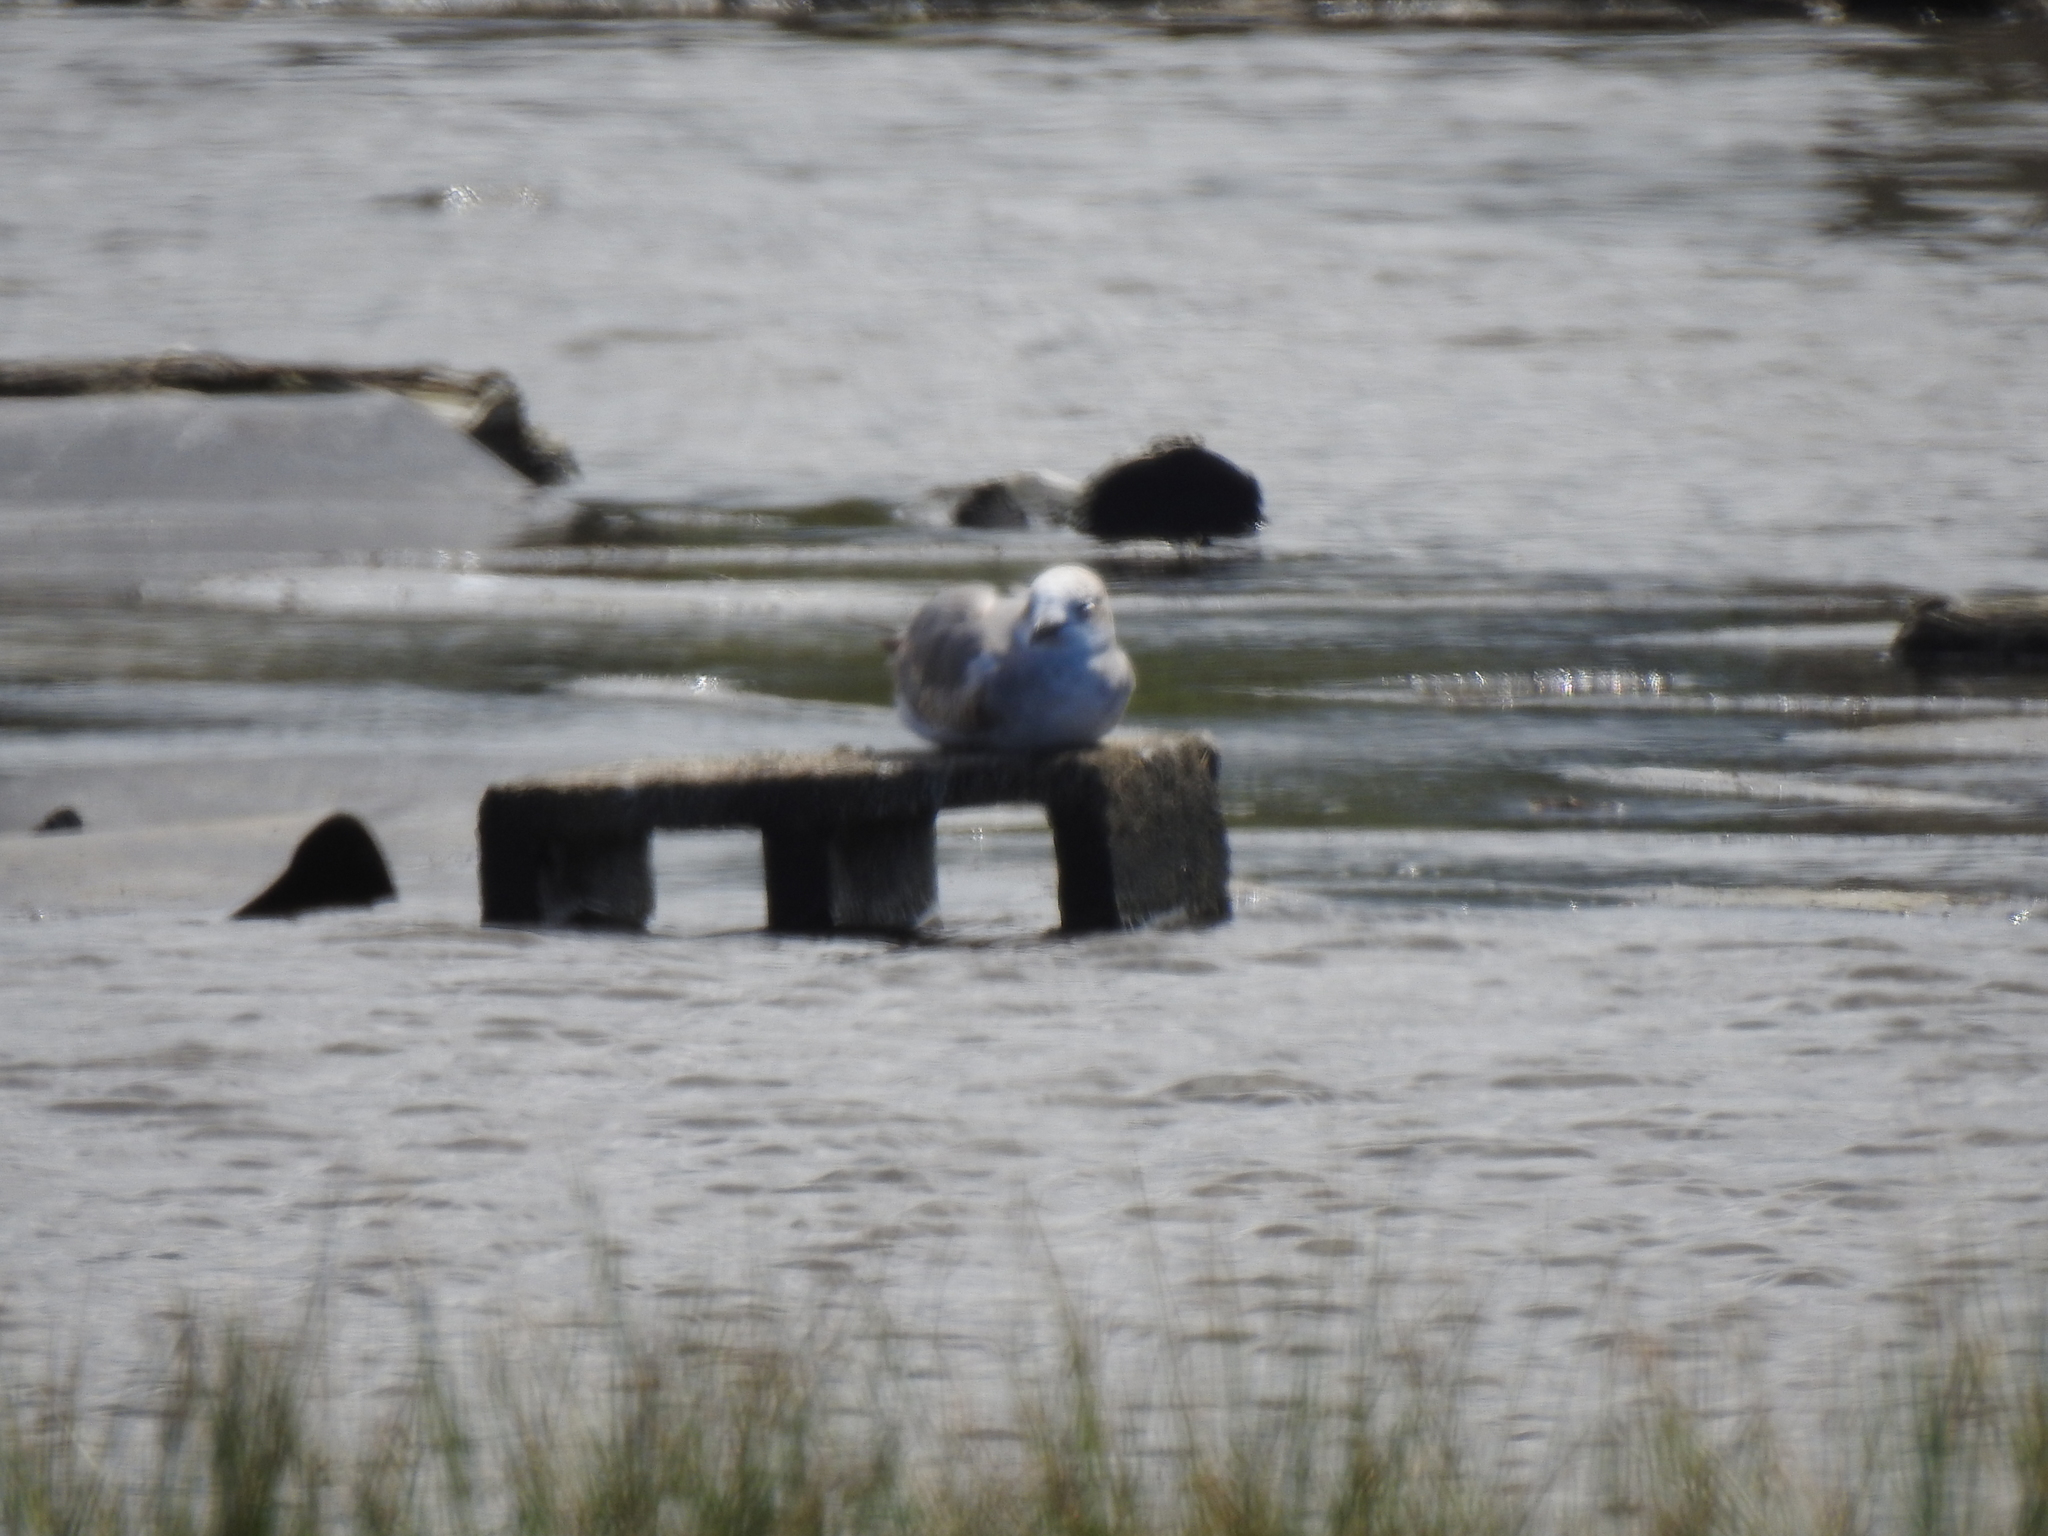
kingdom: Animalia
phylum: Chordata
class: Aves
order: Charadriiformes
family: Laridae
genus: Leucophaeus
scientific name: Leucophaeus atricilla
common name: Laughing gull
